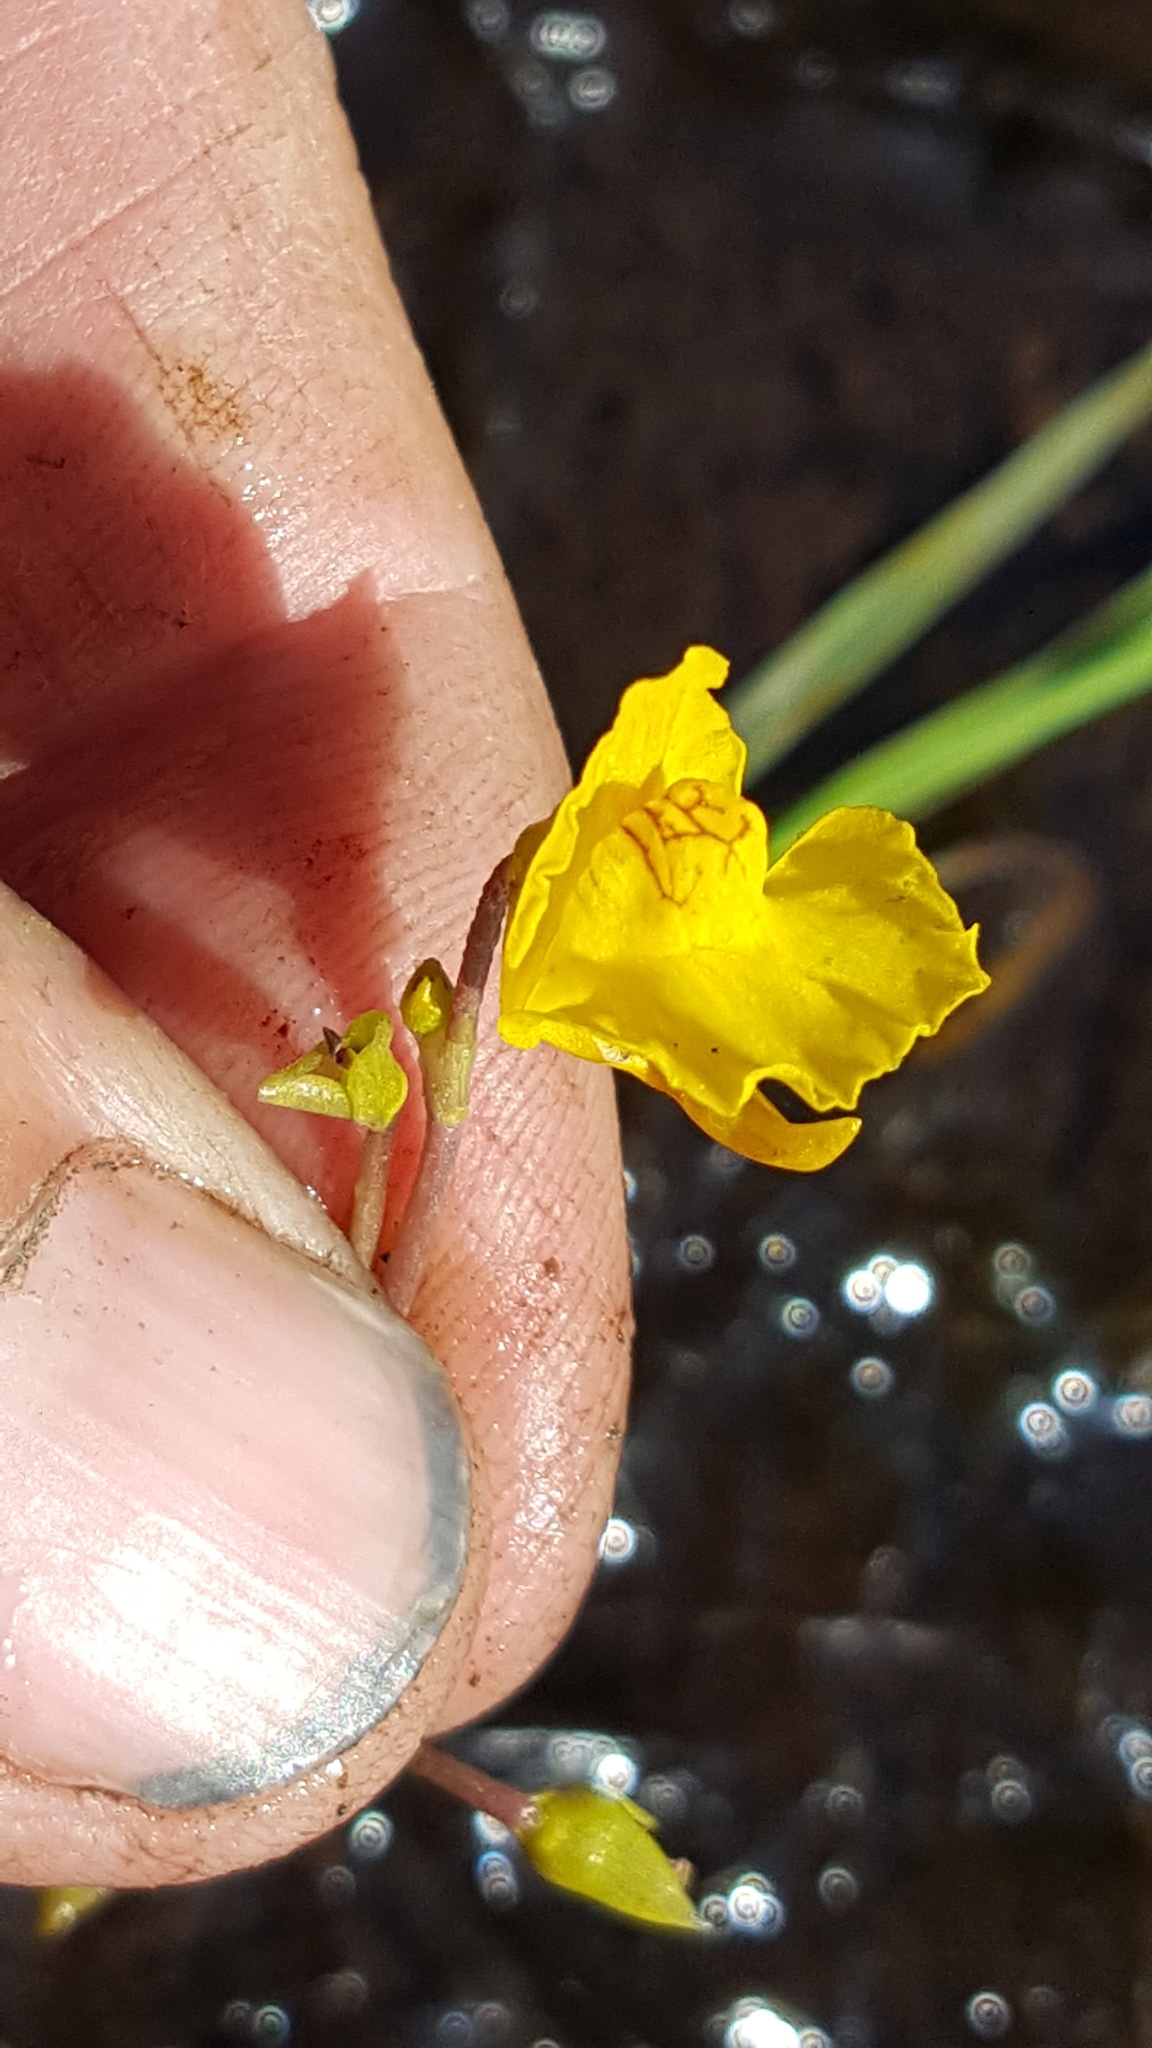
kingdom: Plantae
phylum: Tracheophyta
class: Magnoliopsida
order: Lamiales
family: Lentibulariaceae
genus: Utricularia
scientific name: Utricularia macrorhiza
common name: Common bladderwort
